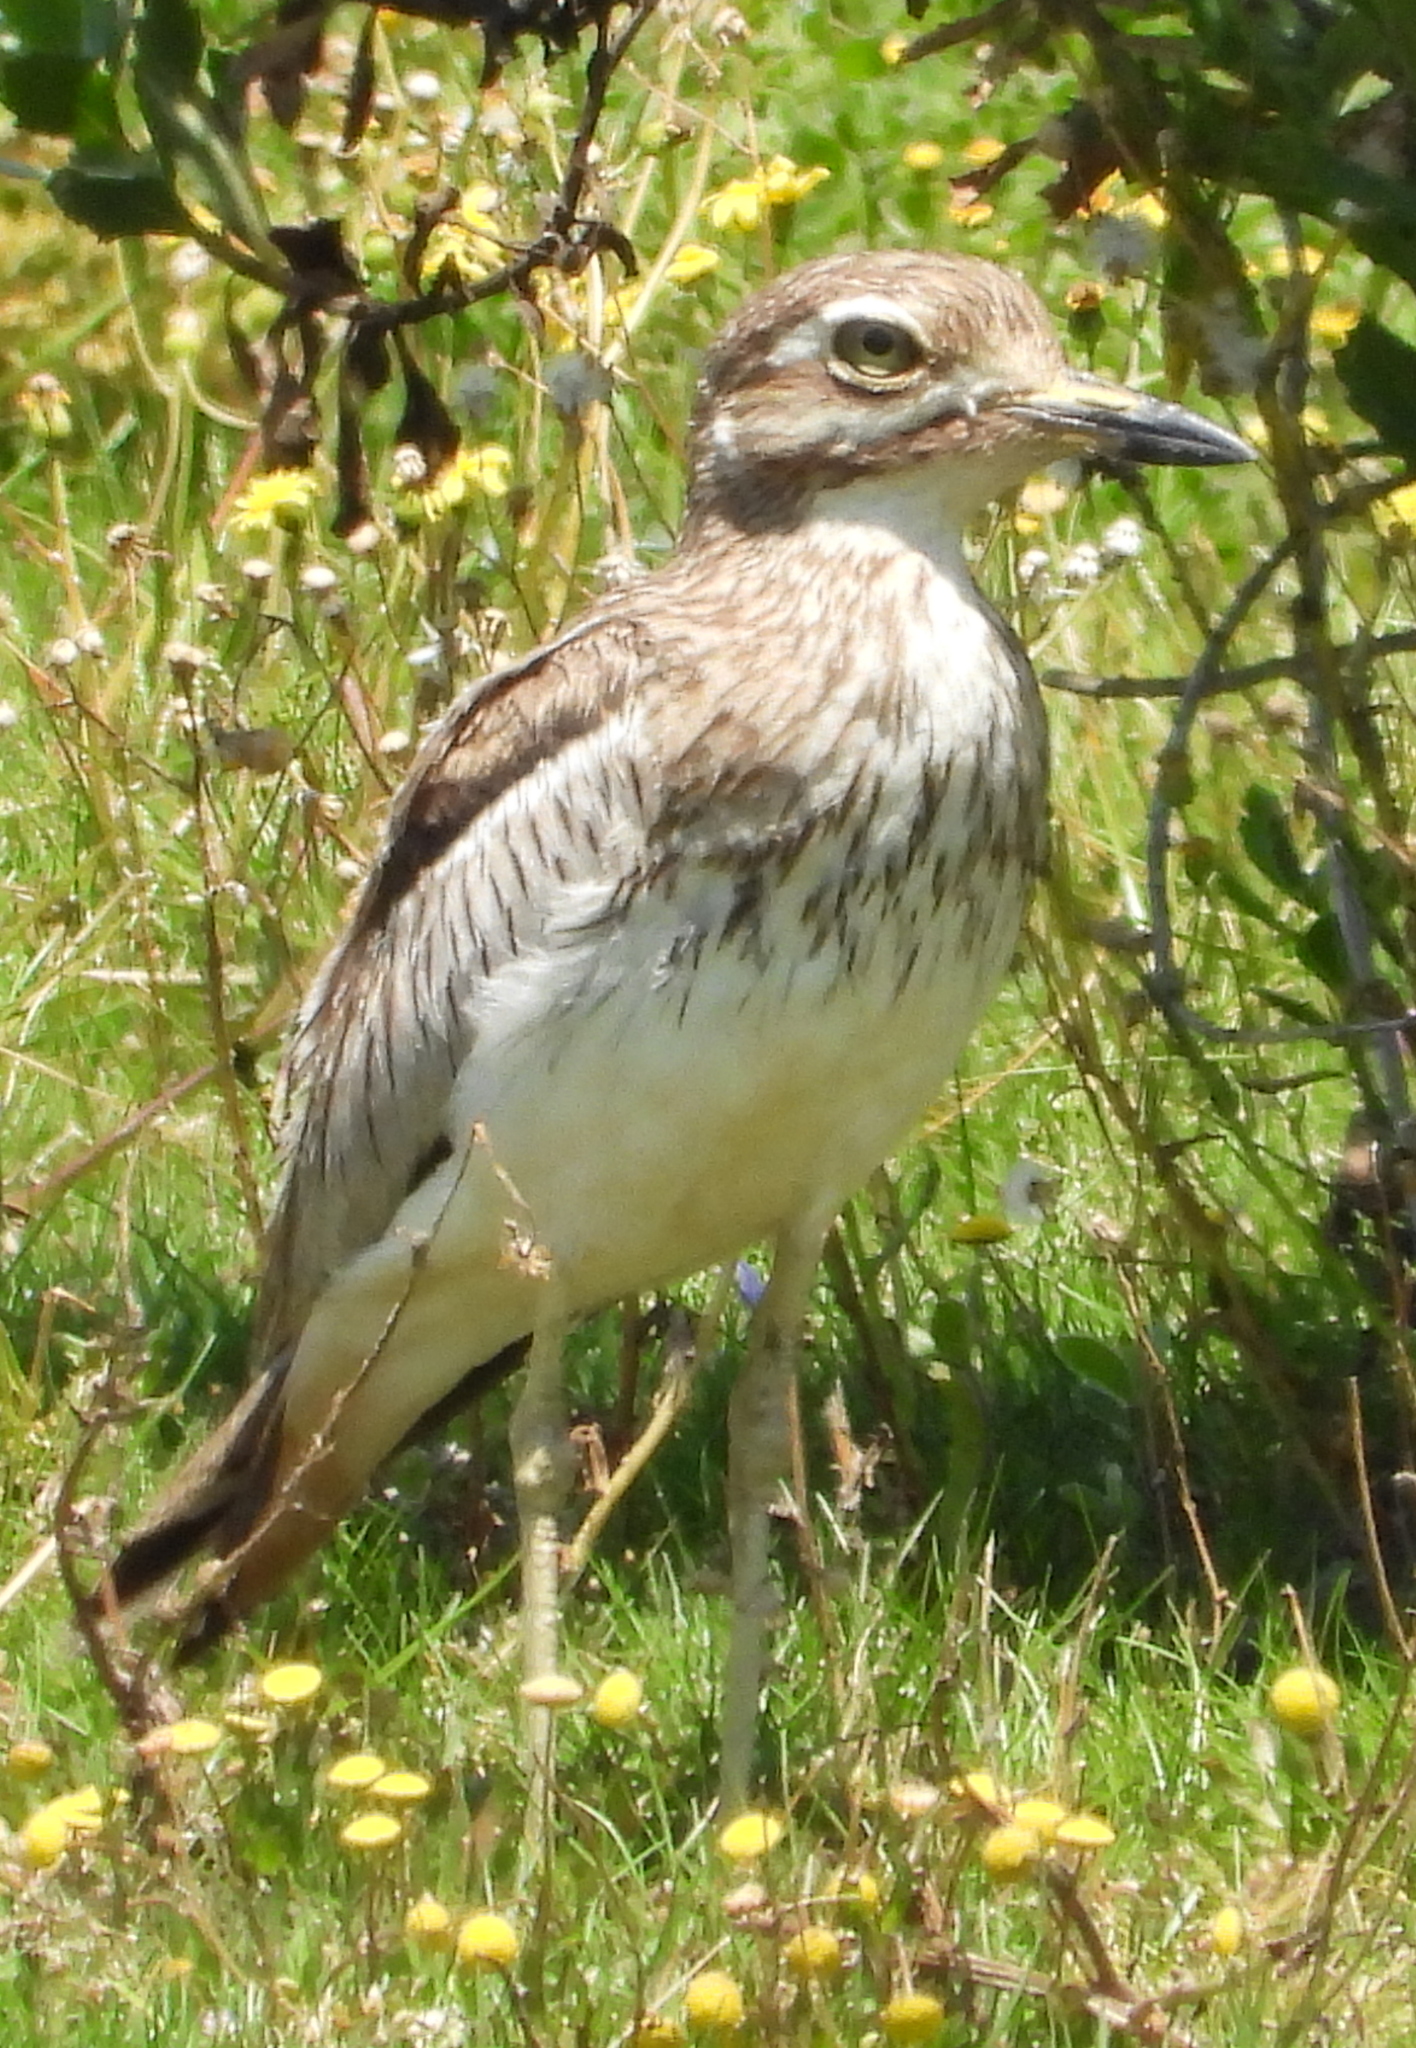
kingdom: Animalia
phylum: Chordata
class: Aves
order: Charadriiformes
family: Burhinidae
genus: Burhinus
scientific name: Burhinus vermiculatus
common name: Water thick-knee
